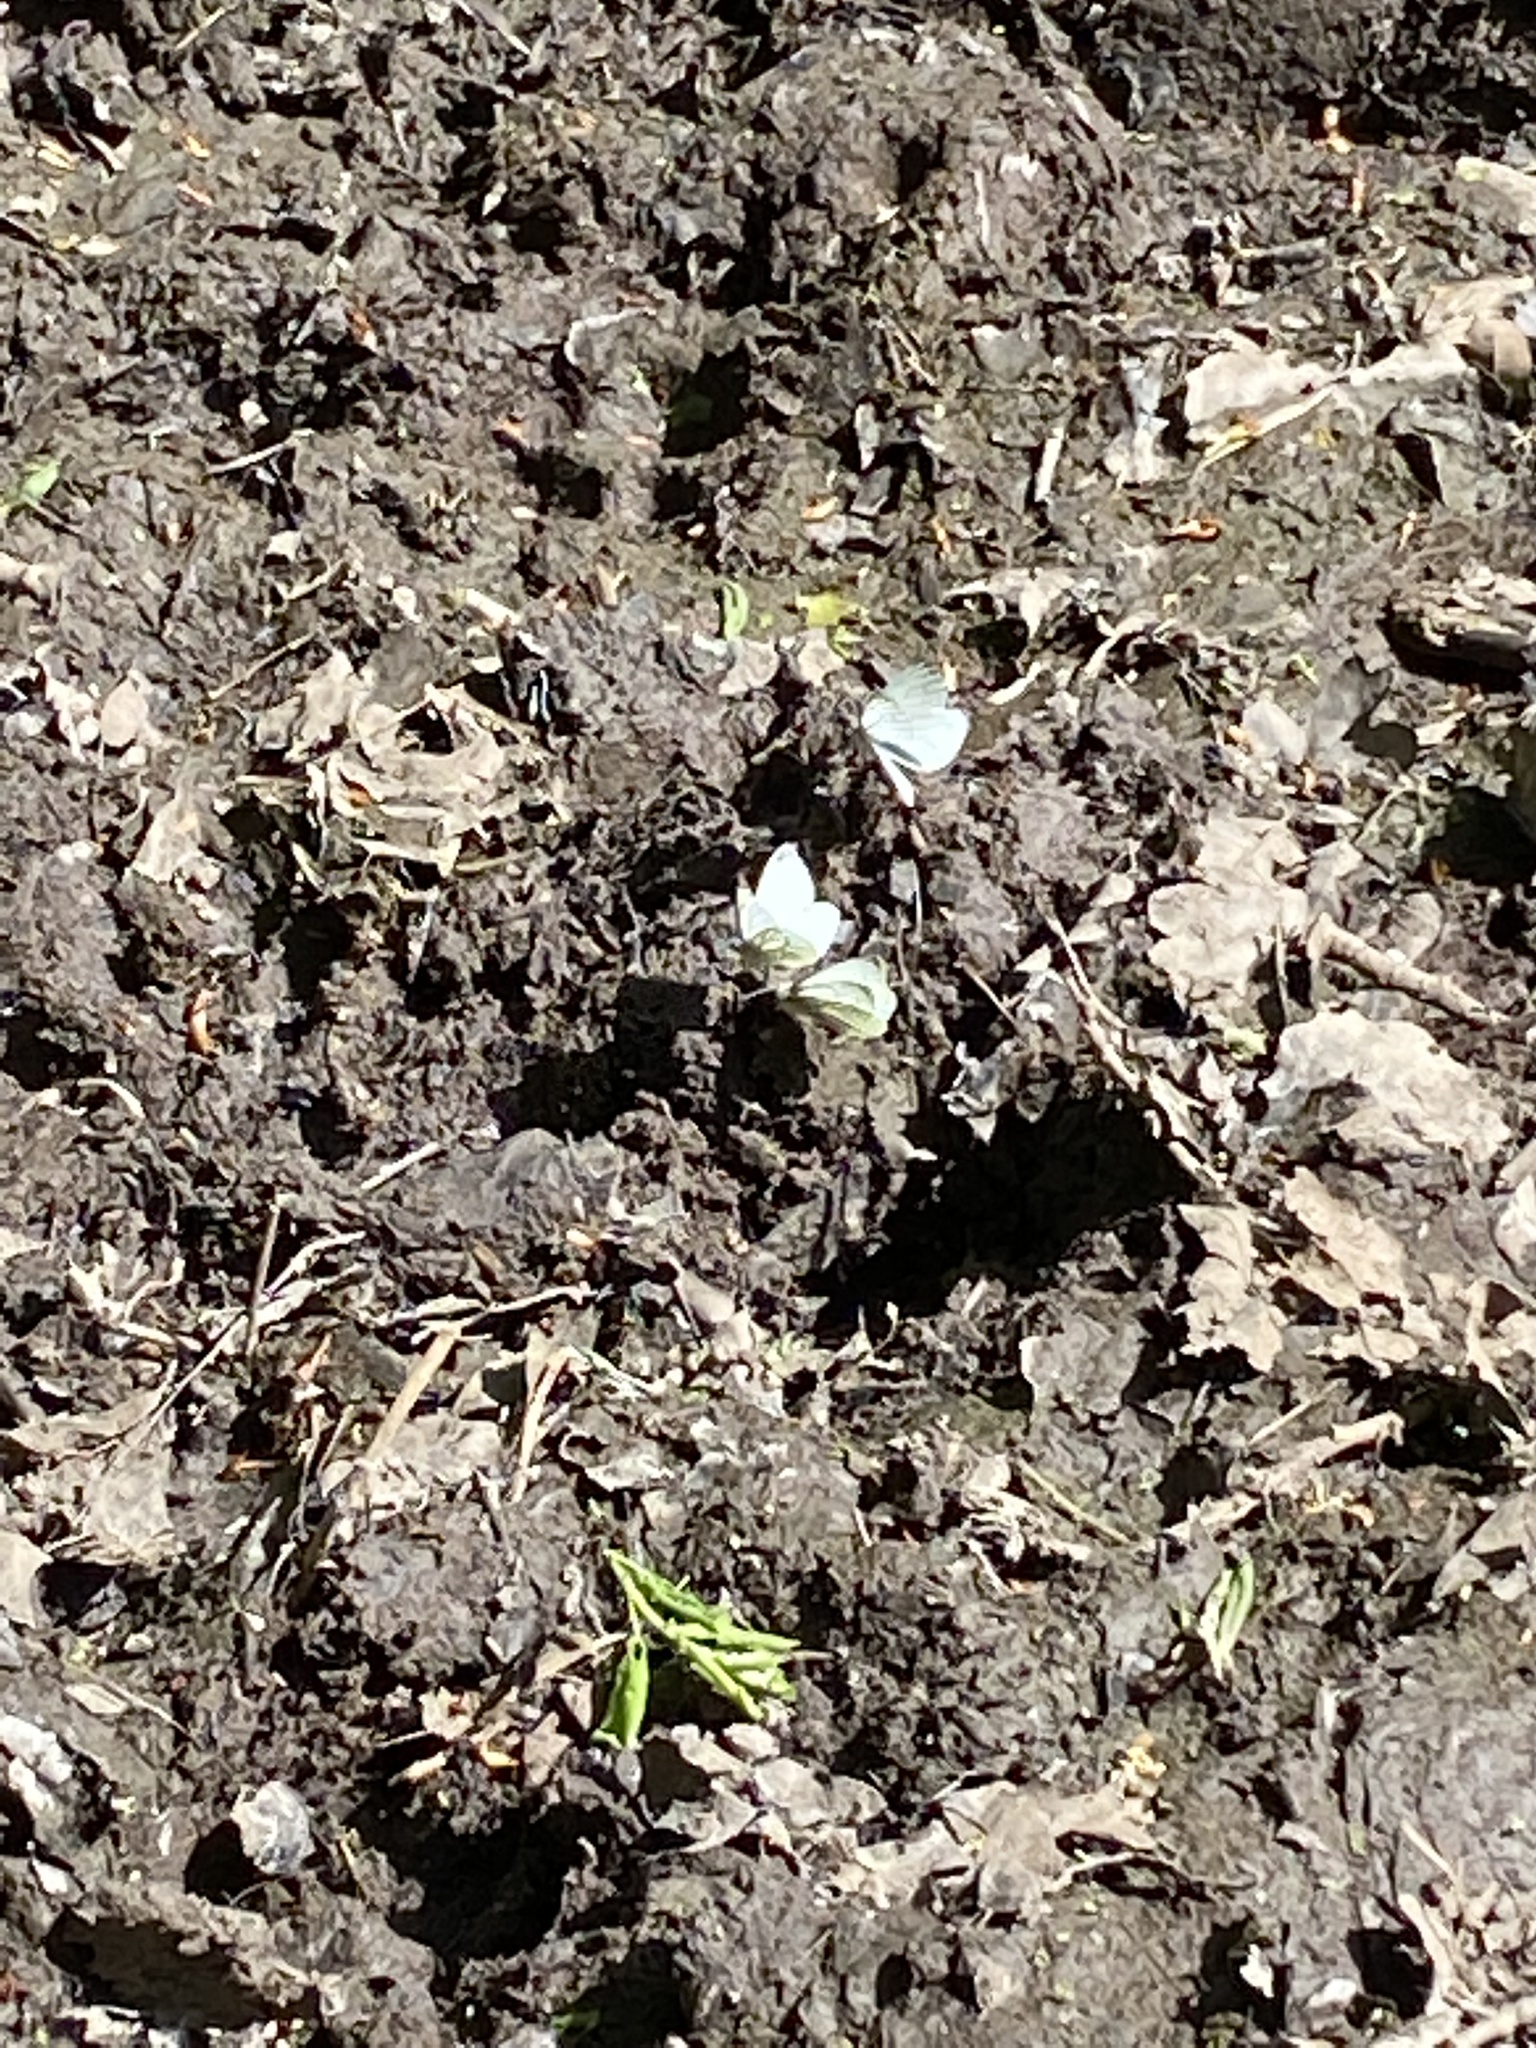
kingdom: Animalia
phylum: Arthropoda
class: Insecta
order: Lepidoptera
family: Pieridae
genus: Pieris
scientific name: Pieris napi
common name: Green-veined white
